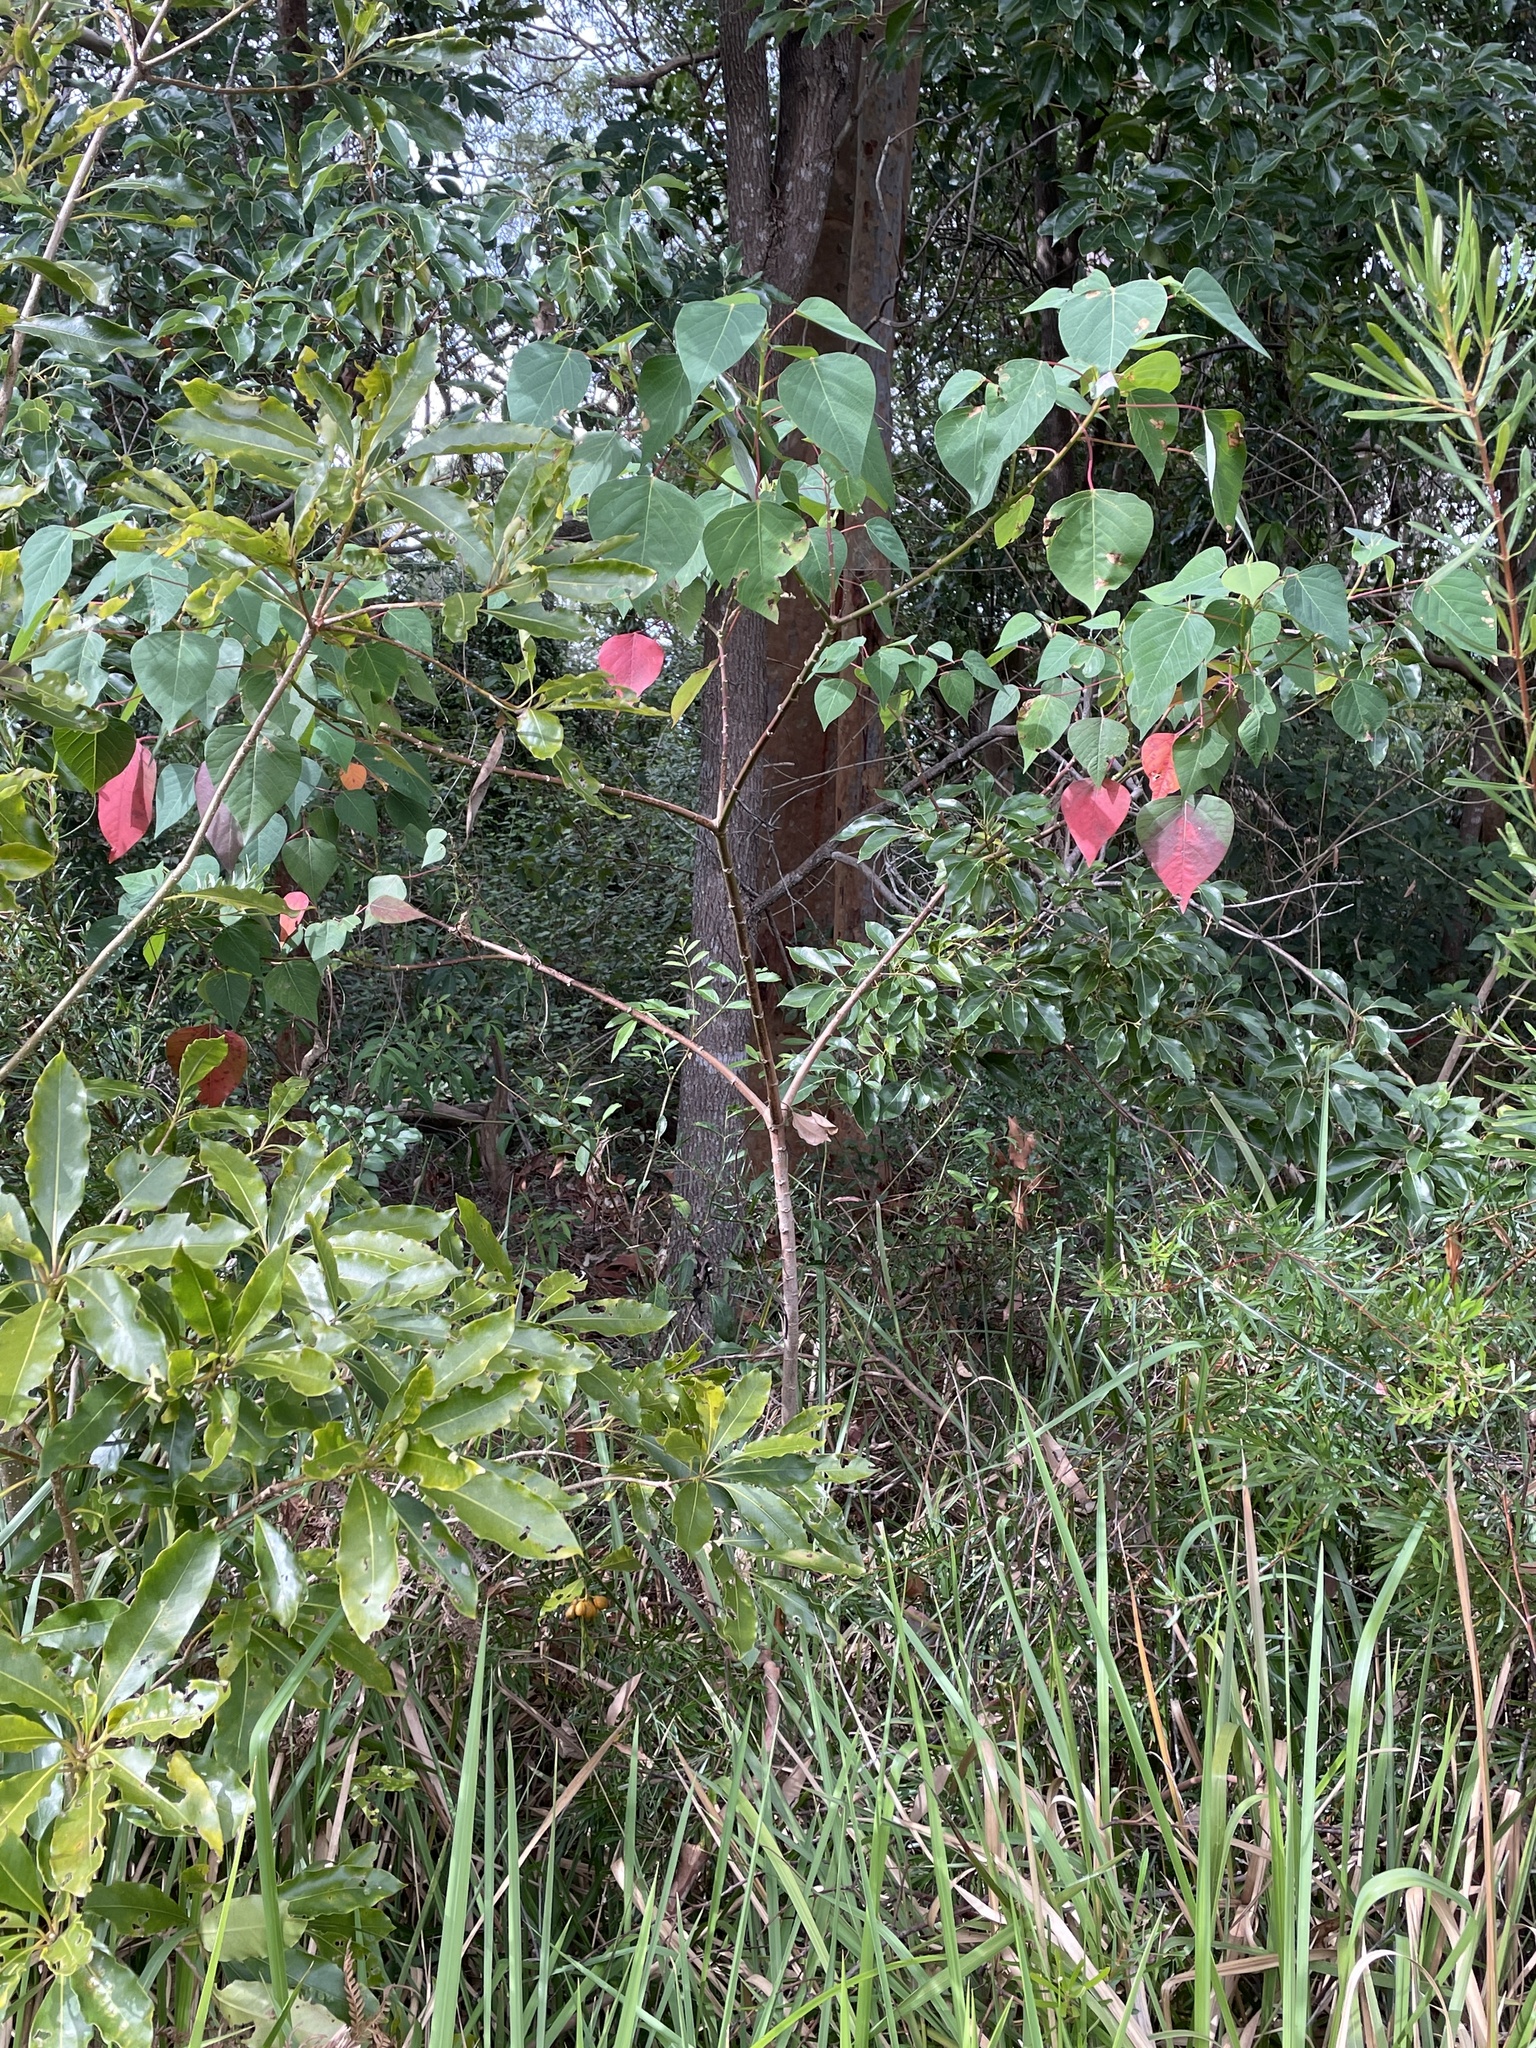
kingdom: Plantae
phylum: Tracheophyta
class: Magnoliopsida
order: Malpighiales
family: Euphorbiaceae
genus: Homalanthus
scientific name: Homalanthus populifolius
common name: Queensland poplar
